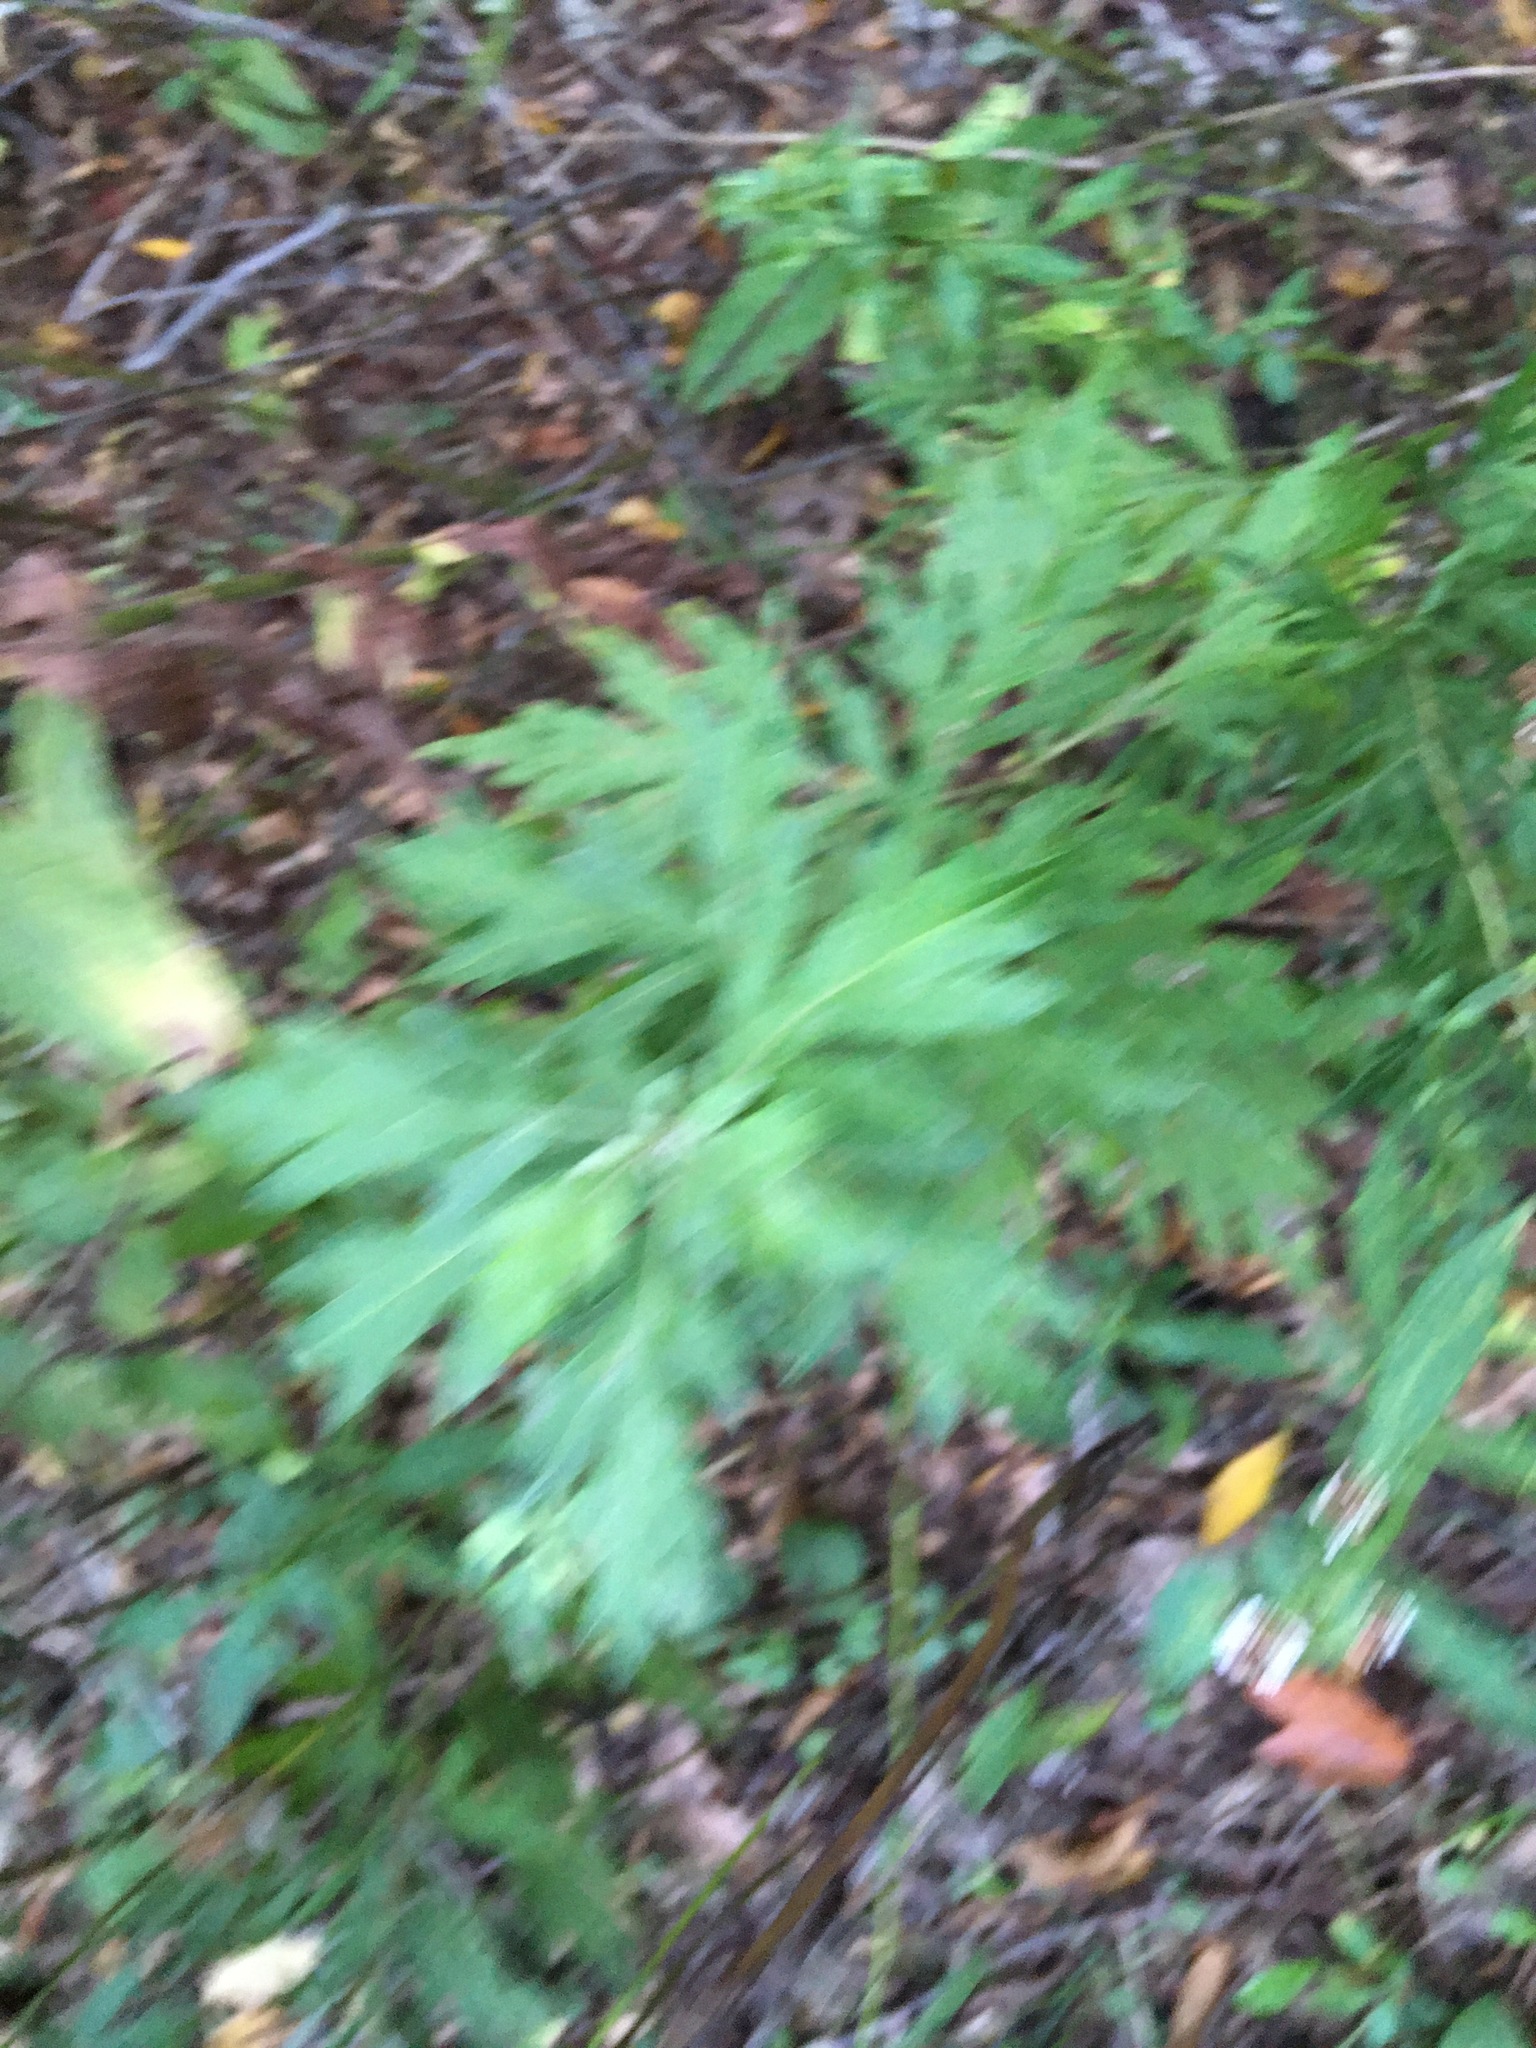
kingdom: Plantae
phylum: Tracheophyta
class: Magnoliopsida
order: Asterales
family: Asteraceae
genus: Artemisia
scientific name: Artemisia vulgaris
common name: Mugwort
